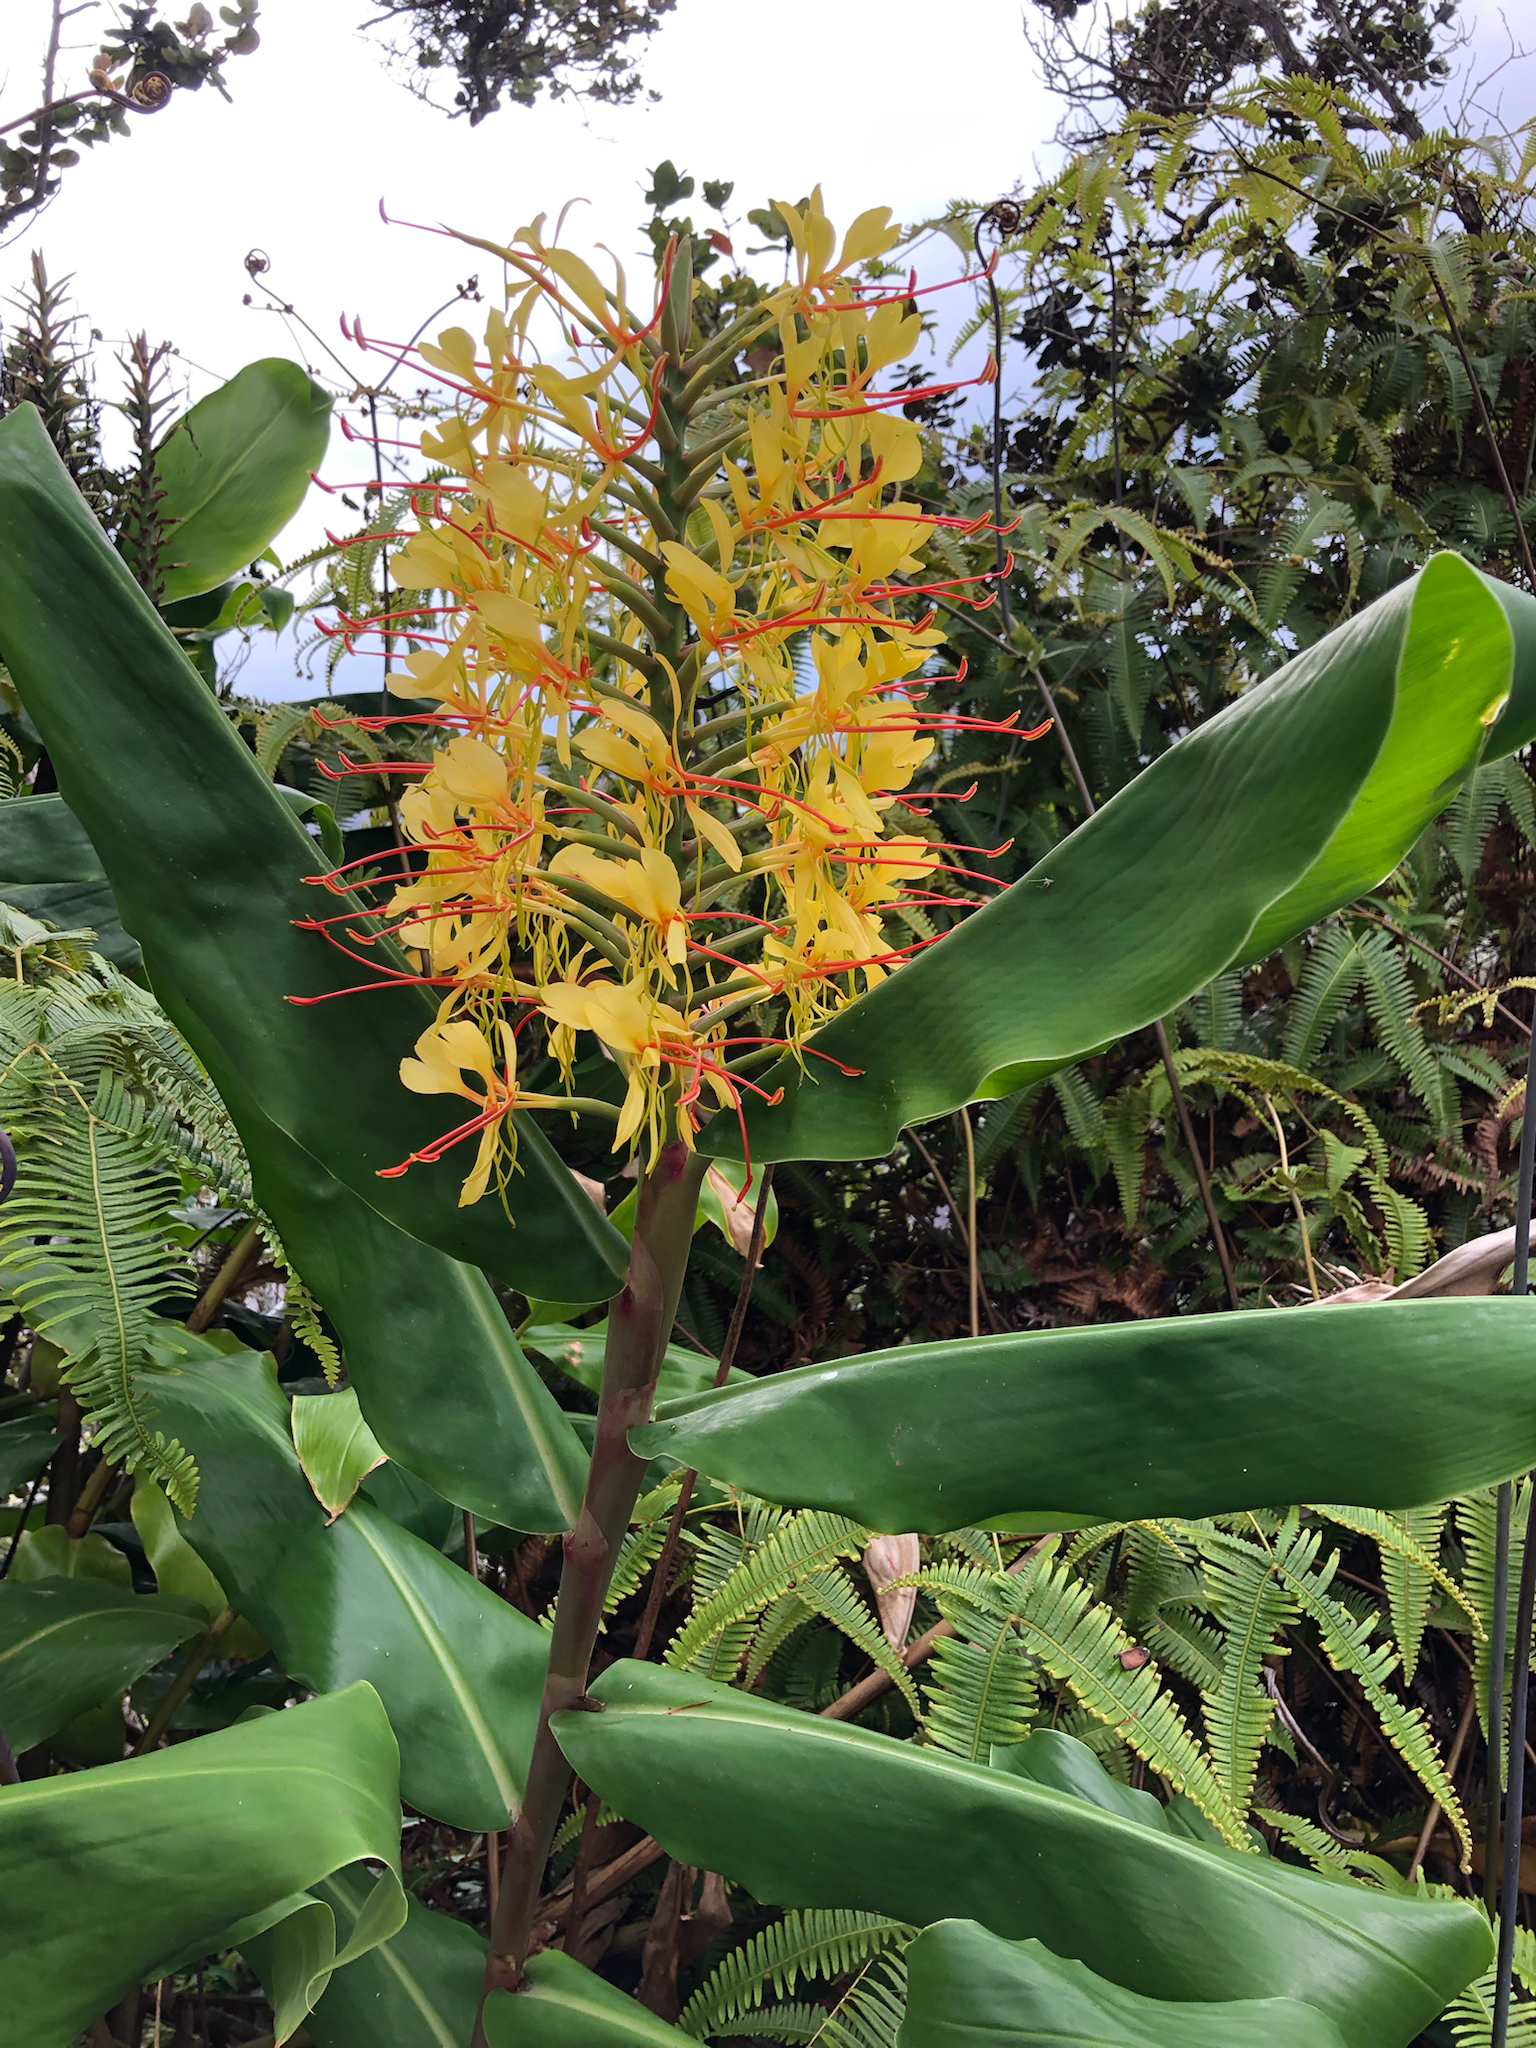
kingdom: Plantae
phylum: Tracheophyta
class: Liliopsida
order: Zingiberales
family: Zingiberaceae
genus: Hedychium
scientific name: Hedychium gardnerianum
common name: Himalayan ginger
